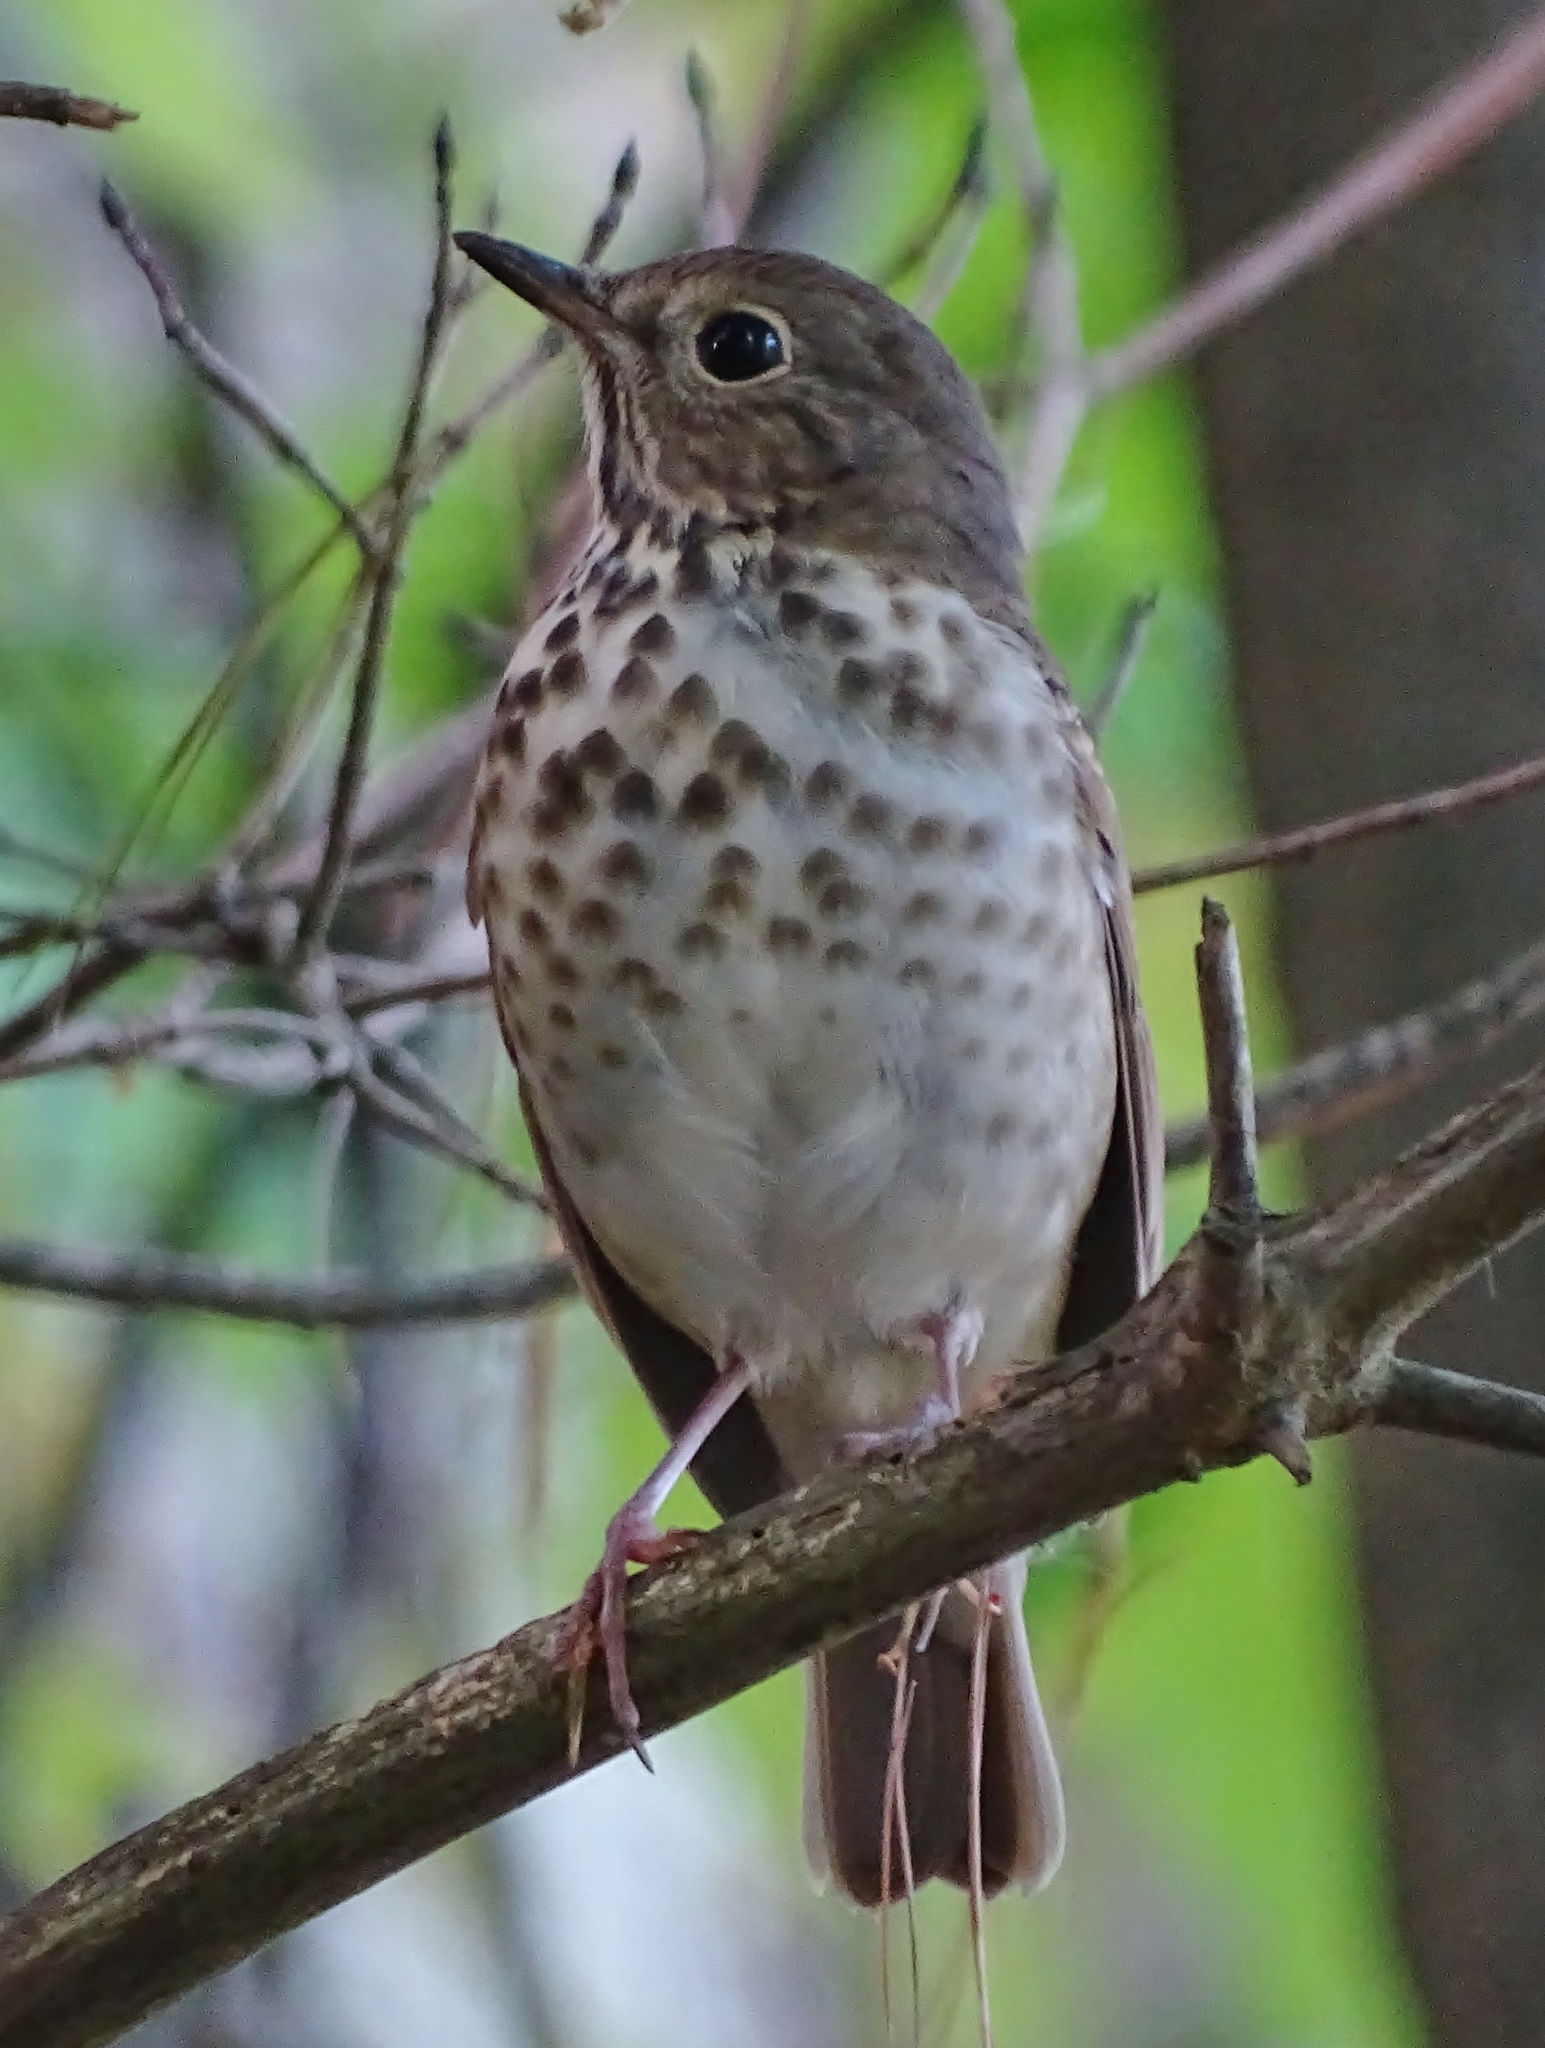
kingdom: Animalia
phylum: Chordata
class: Aves
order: Passeriformes
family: Turdidae
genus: Catharus
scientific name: Catharus guttatus
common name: Hermit thrush
